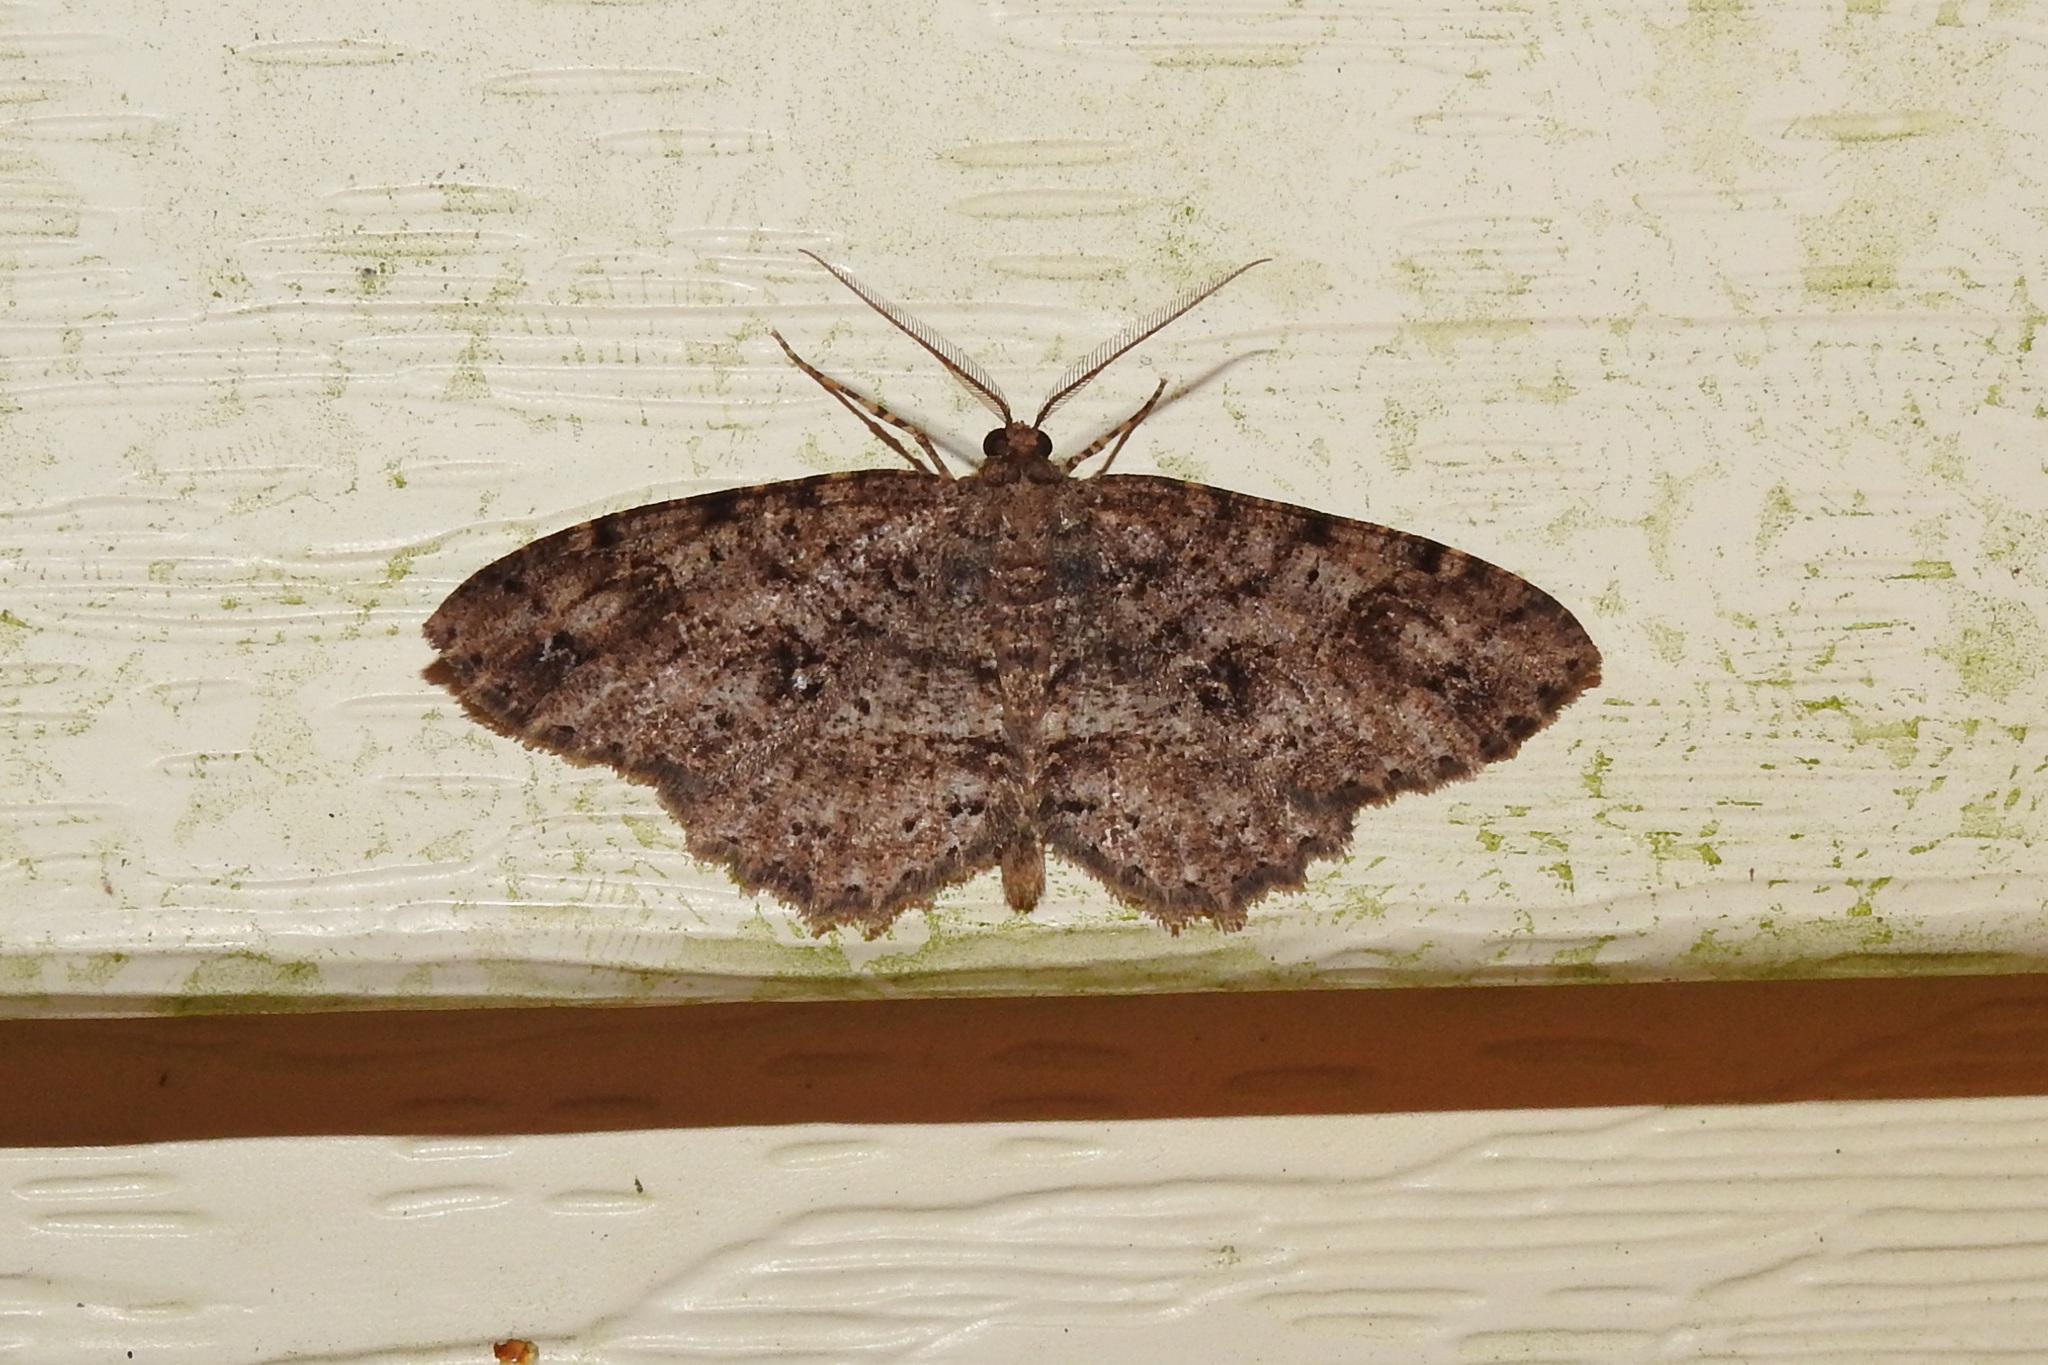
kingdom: Animalia
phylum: Arthropoda
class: Insecta
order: Lepidoptera
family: Geometridae
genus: Melanolophia
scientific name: Melanolophia canadaria
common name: Canadian melanolophia
